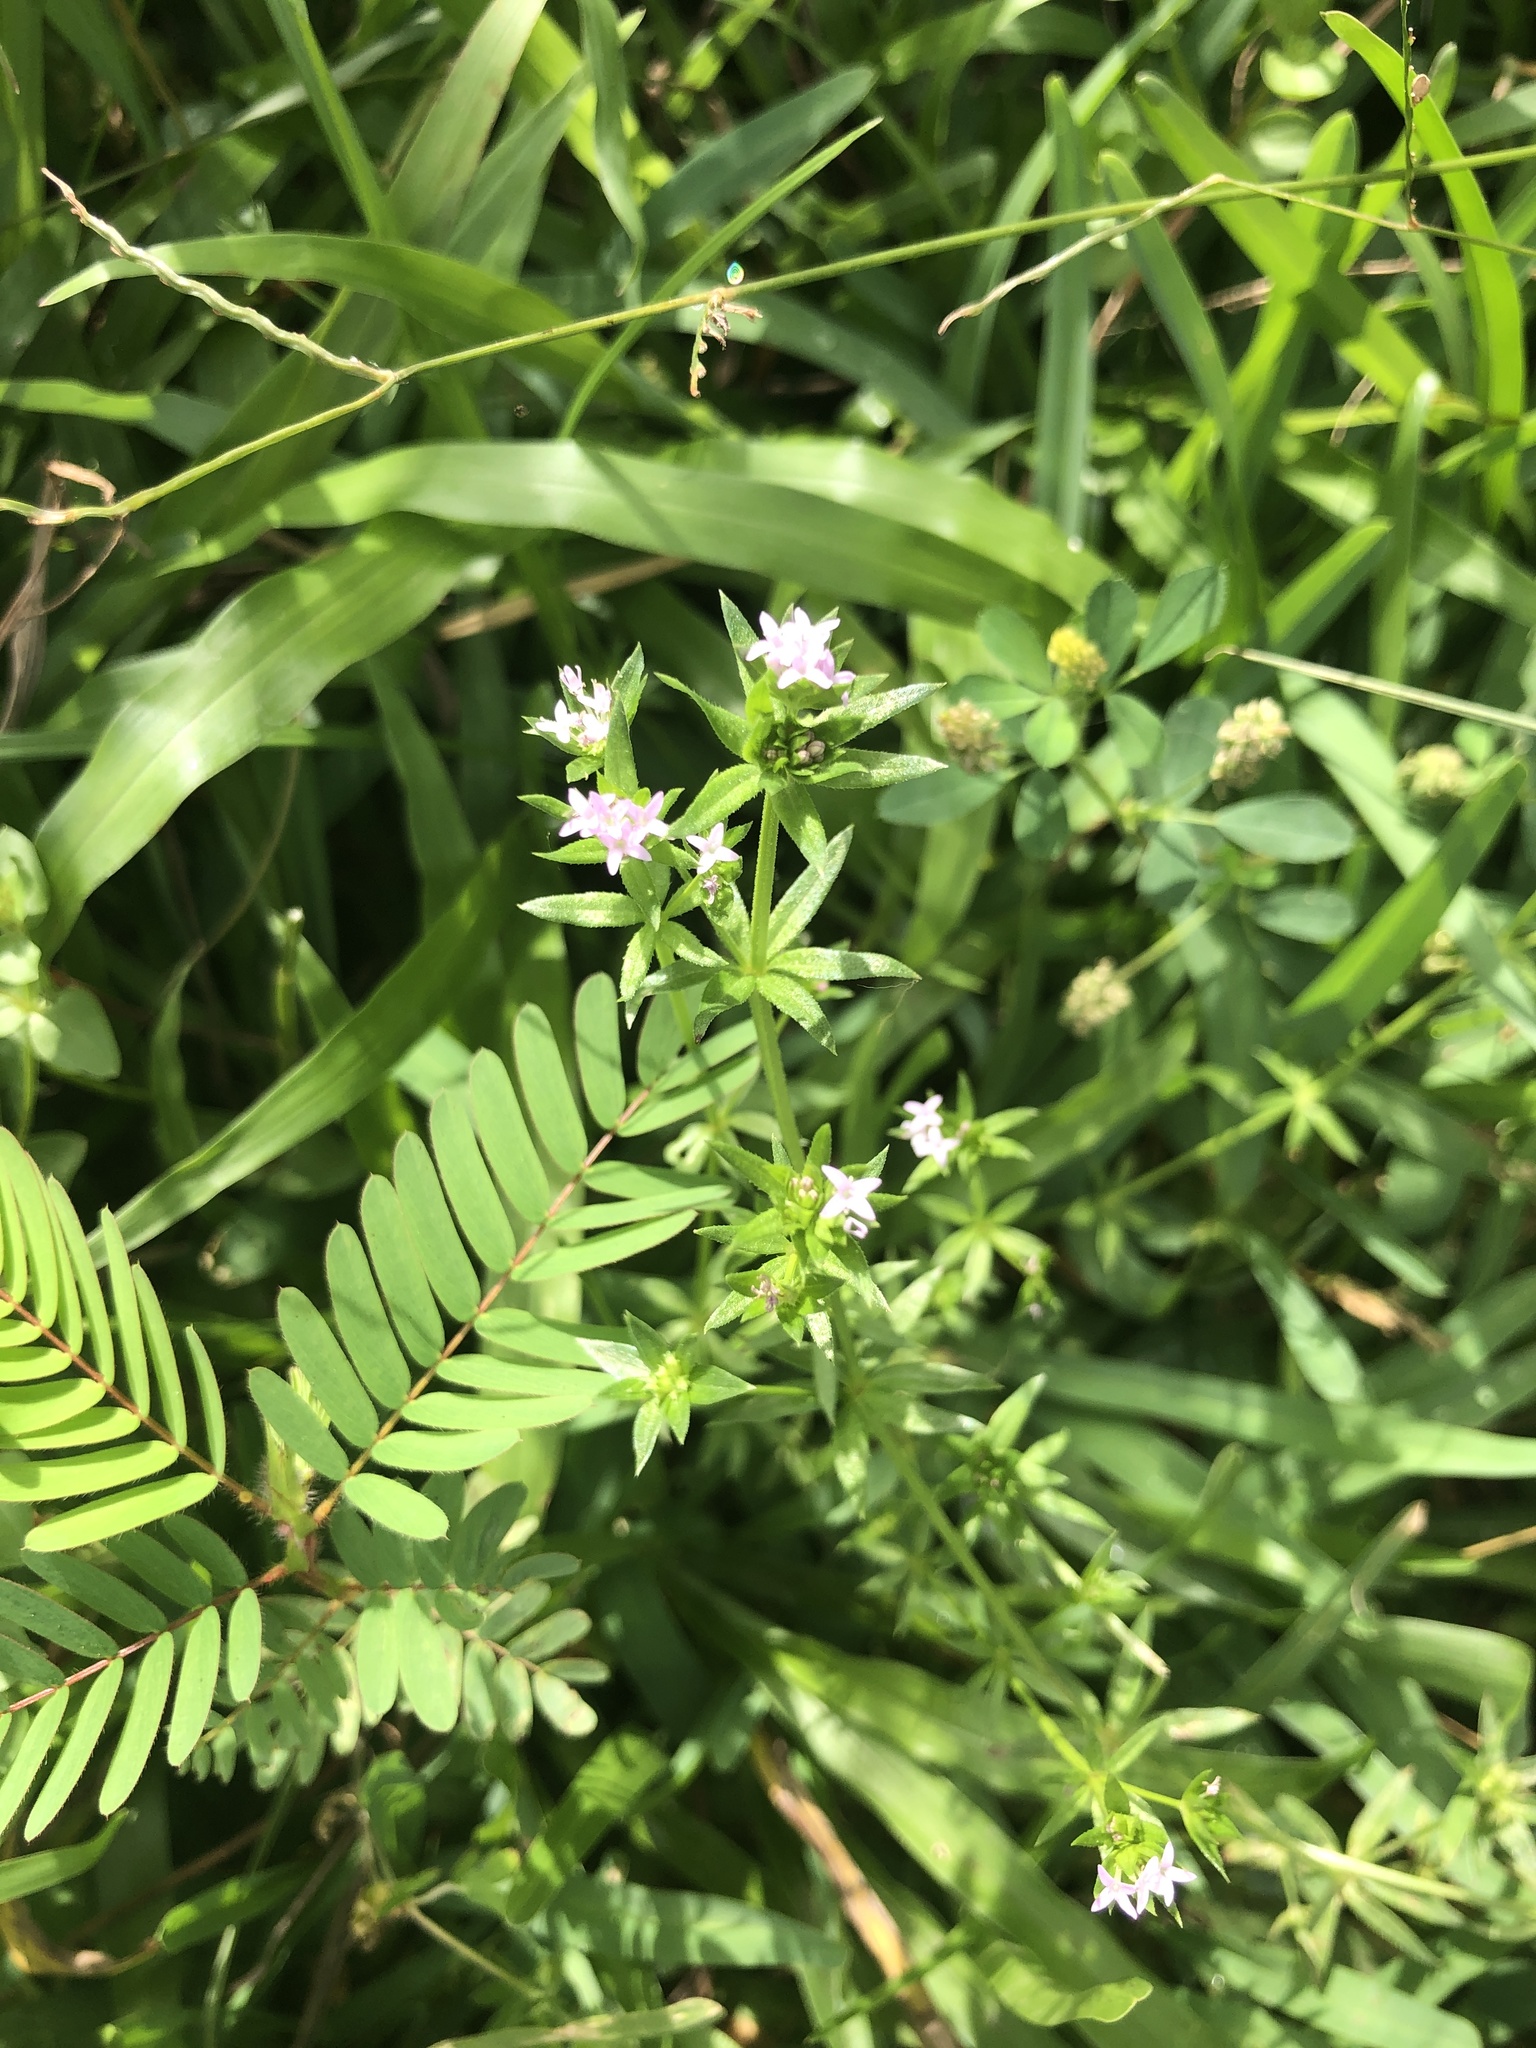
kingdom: Plantae
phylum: Tracheophyta
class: Magnoliopsida
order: Gentianales
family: Rubiaceae
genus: Sherardia
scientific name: Sherardia arvensis
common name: Field madder
